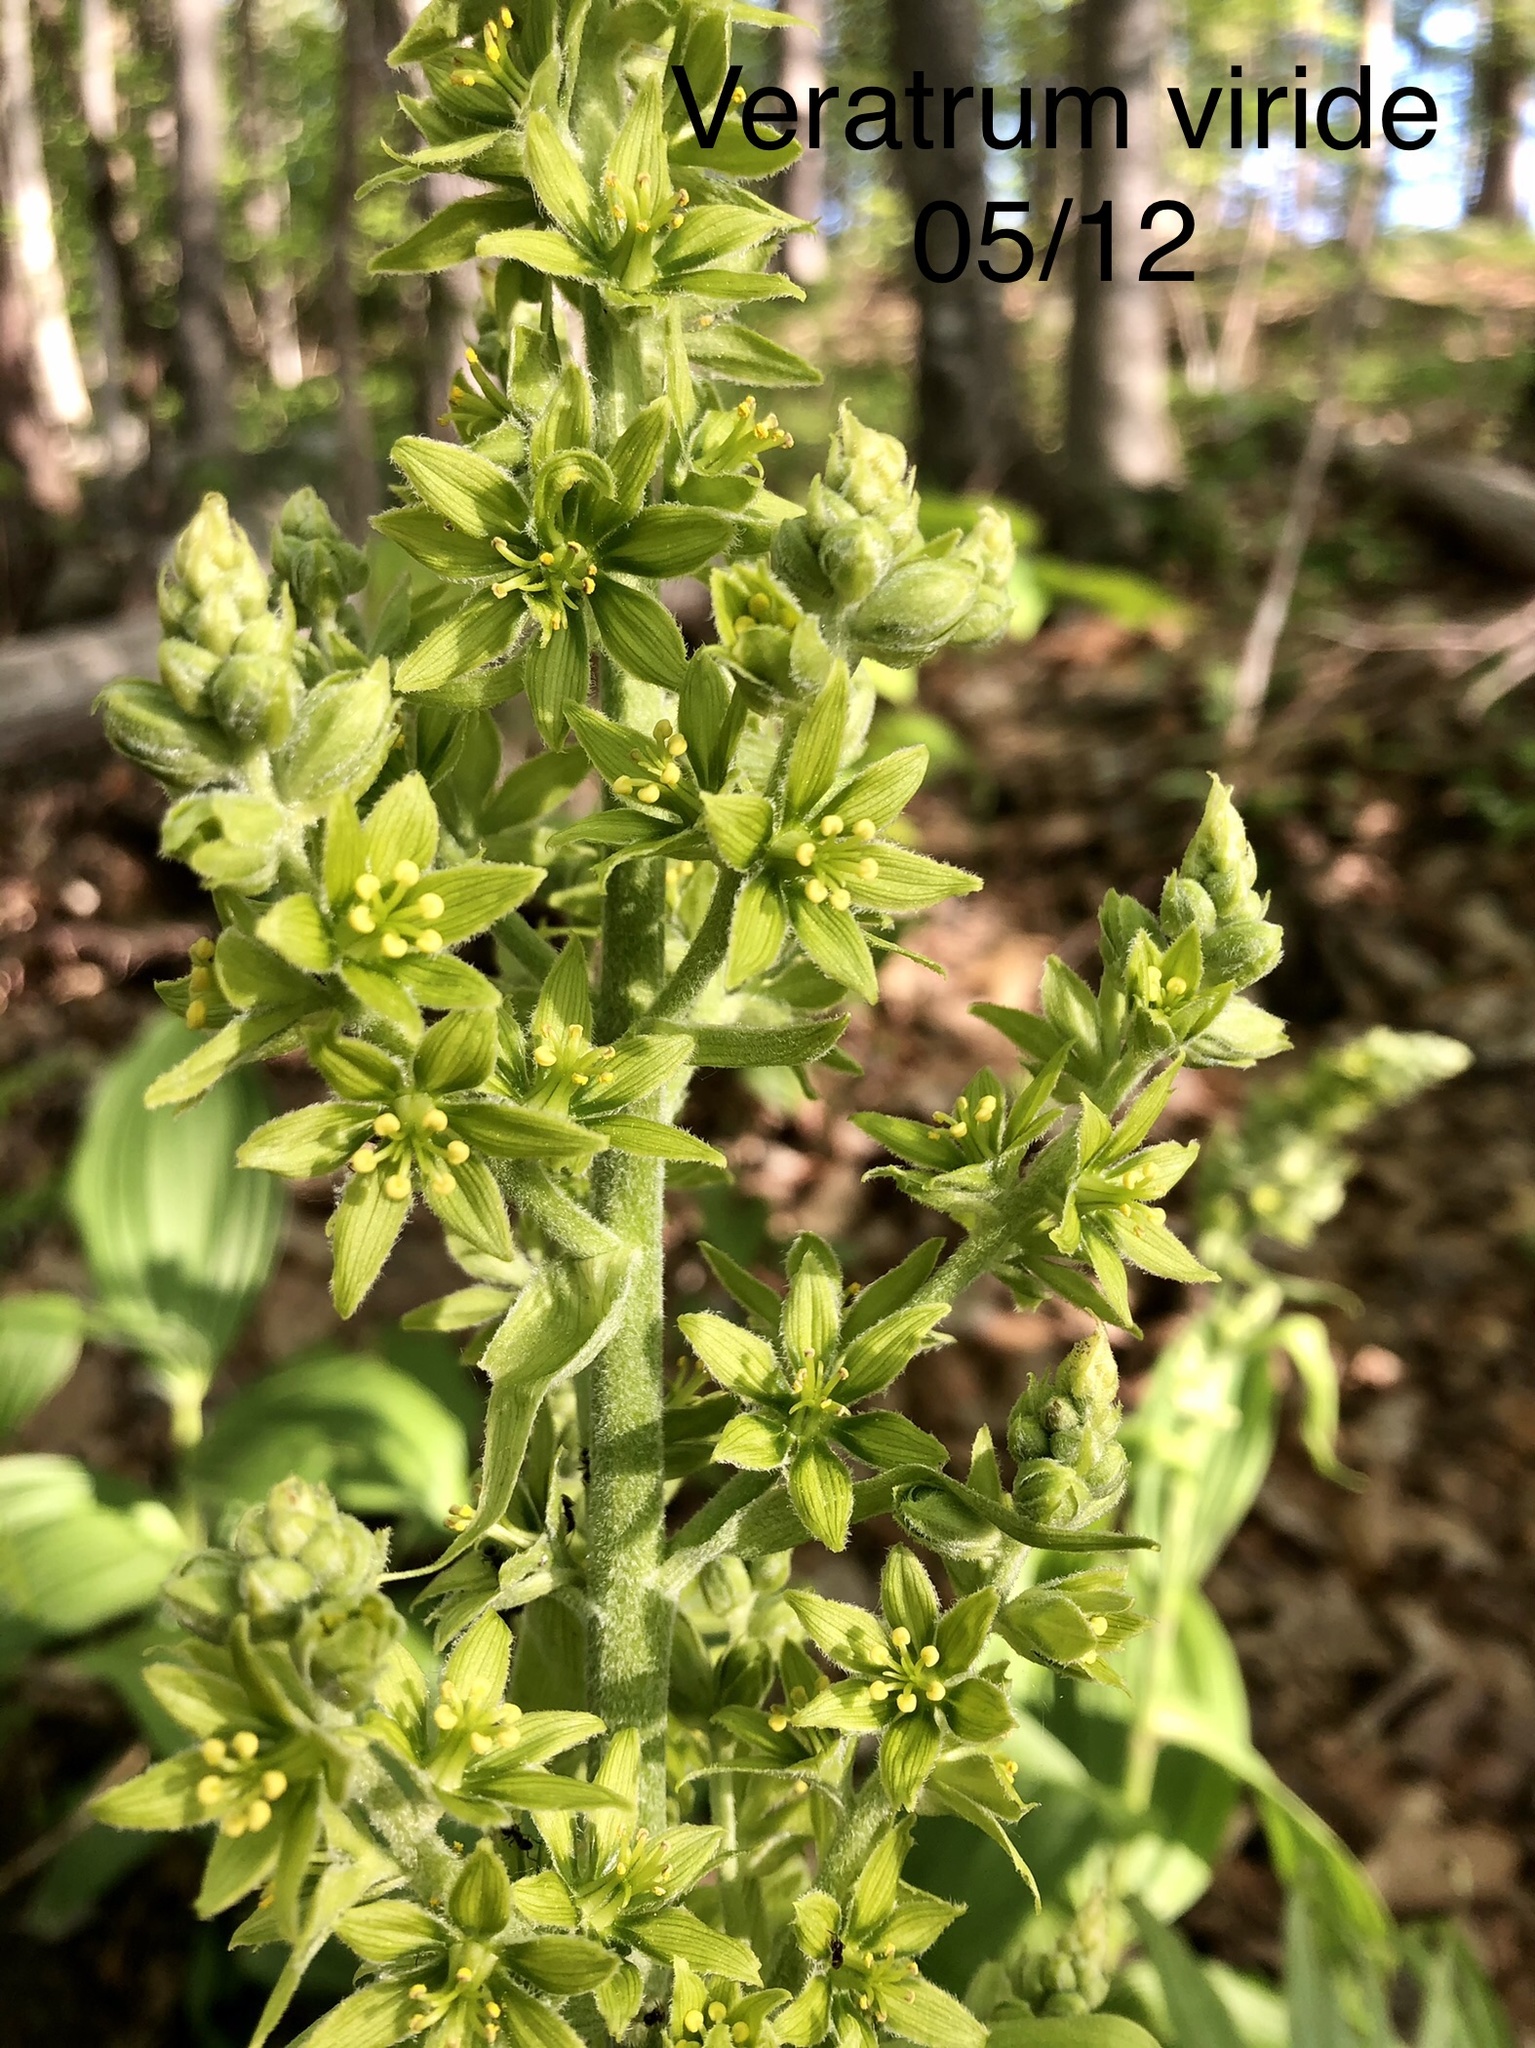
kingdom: Plantae
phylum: Tracheophyta
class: Liliopsida
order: Liliales
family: Melanthiaceae
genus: Veratrum
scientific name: Veratrum viride
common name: American false hellebore
